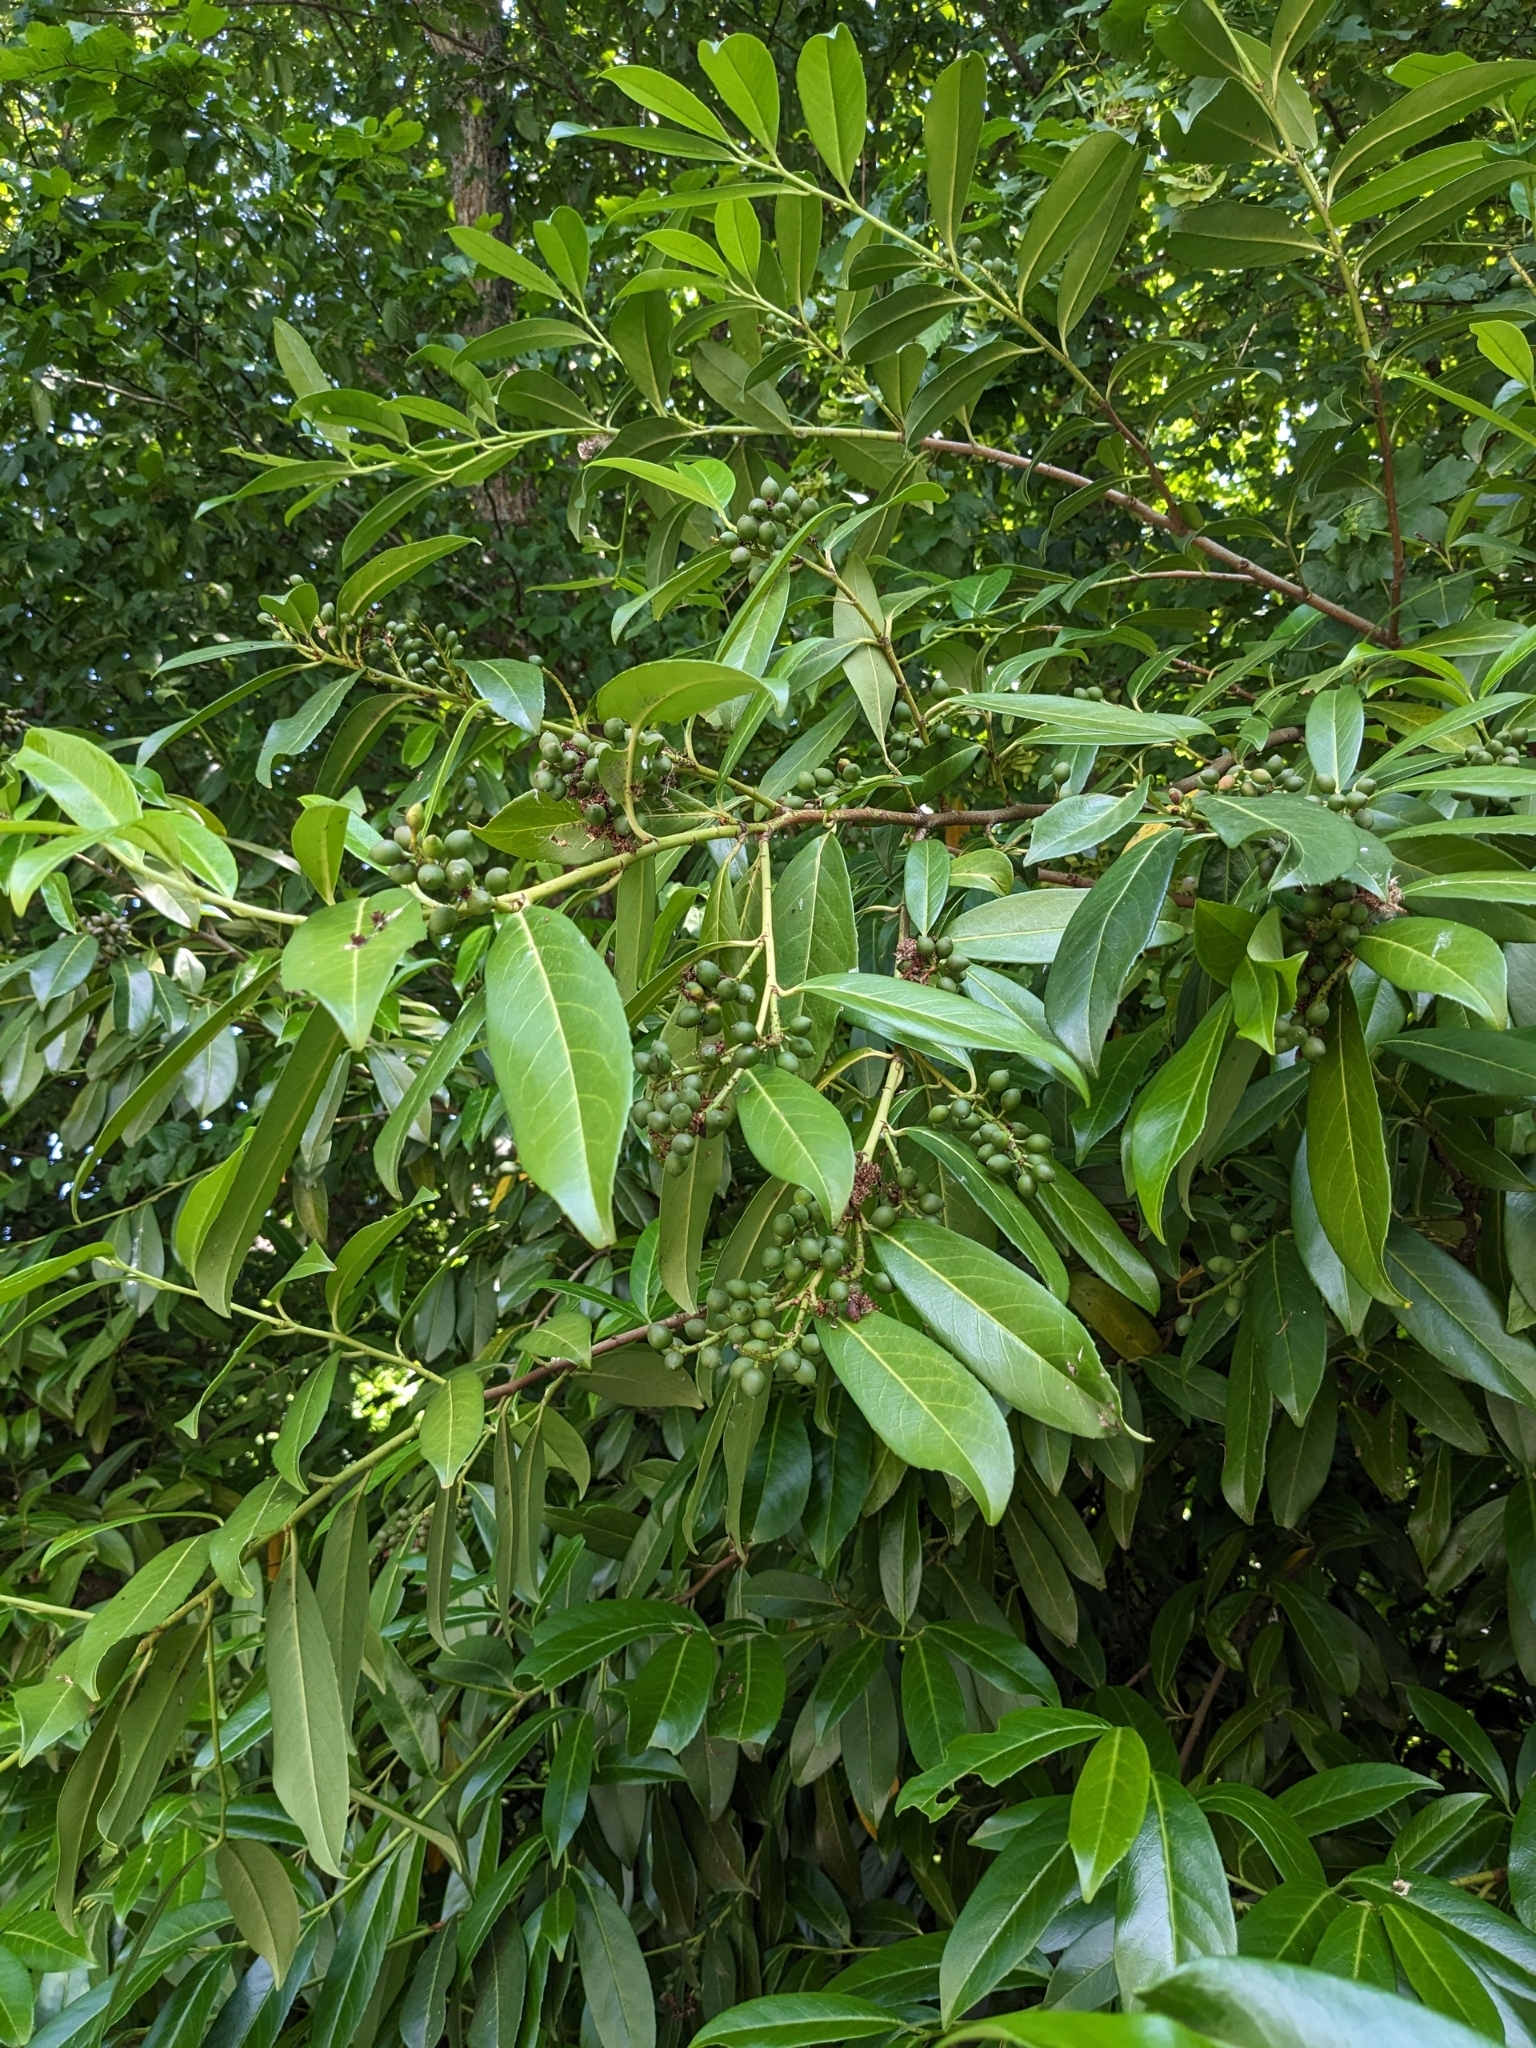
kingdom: Plantae
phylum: Tracheophyta
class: Magnoliopsida
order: Rosales
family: Rosaceae
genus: Prunus
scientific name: Prunus laurocerasus
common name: Cherry laurel
